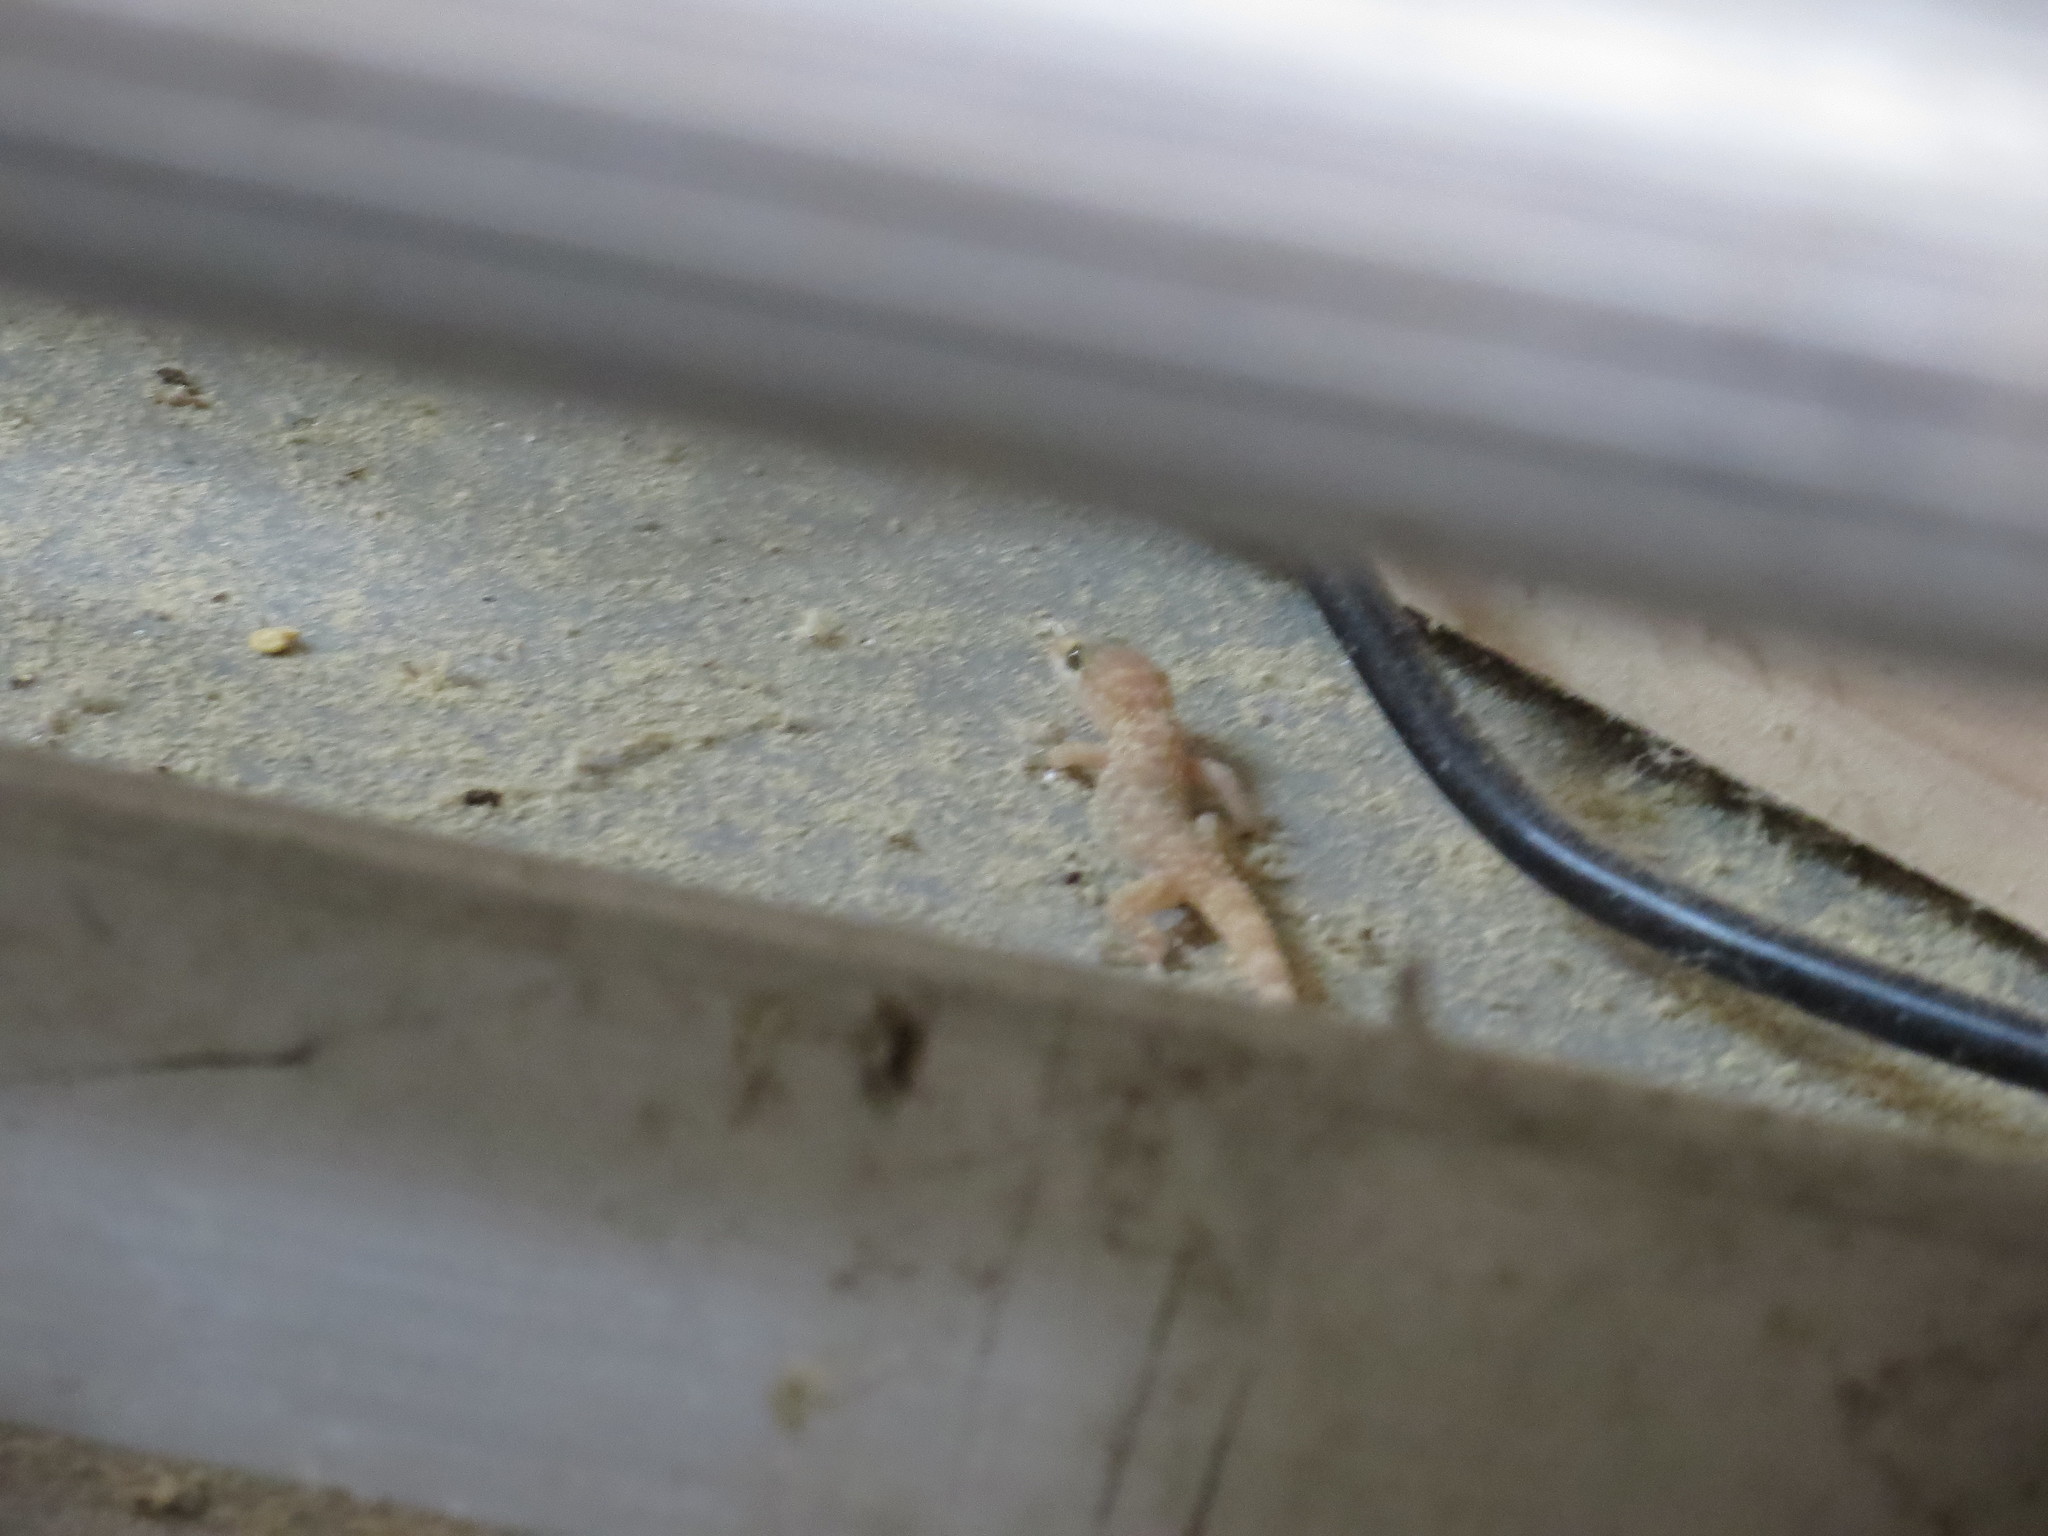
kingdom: Animalia
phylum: Chordata
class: Squamata
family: Gekkonidae
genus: Hemidactylus
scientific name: Hemidactylus turcicus
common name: Turkish gecko
